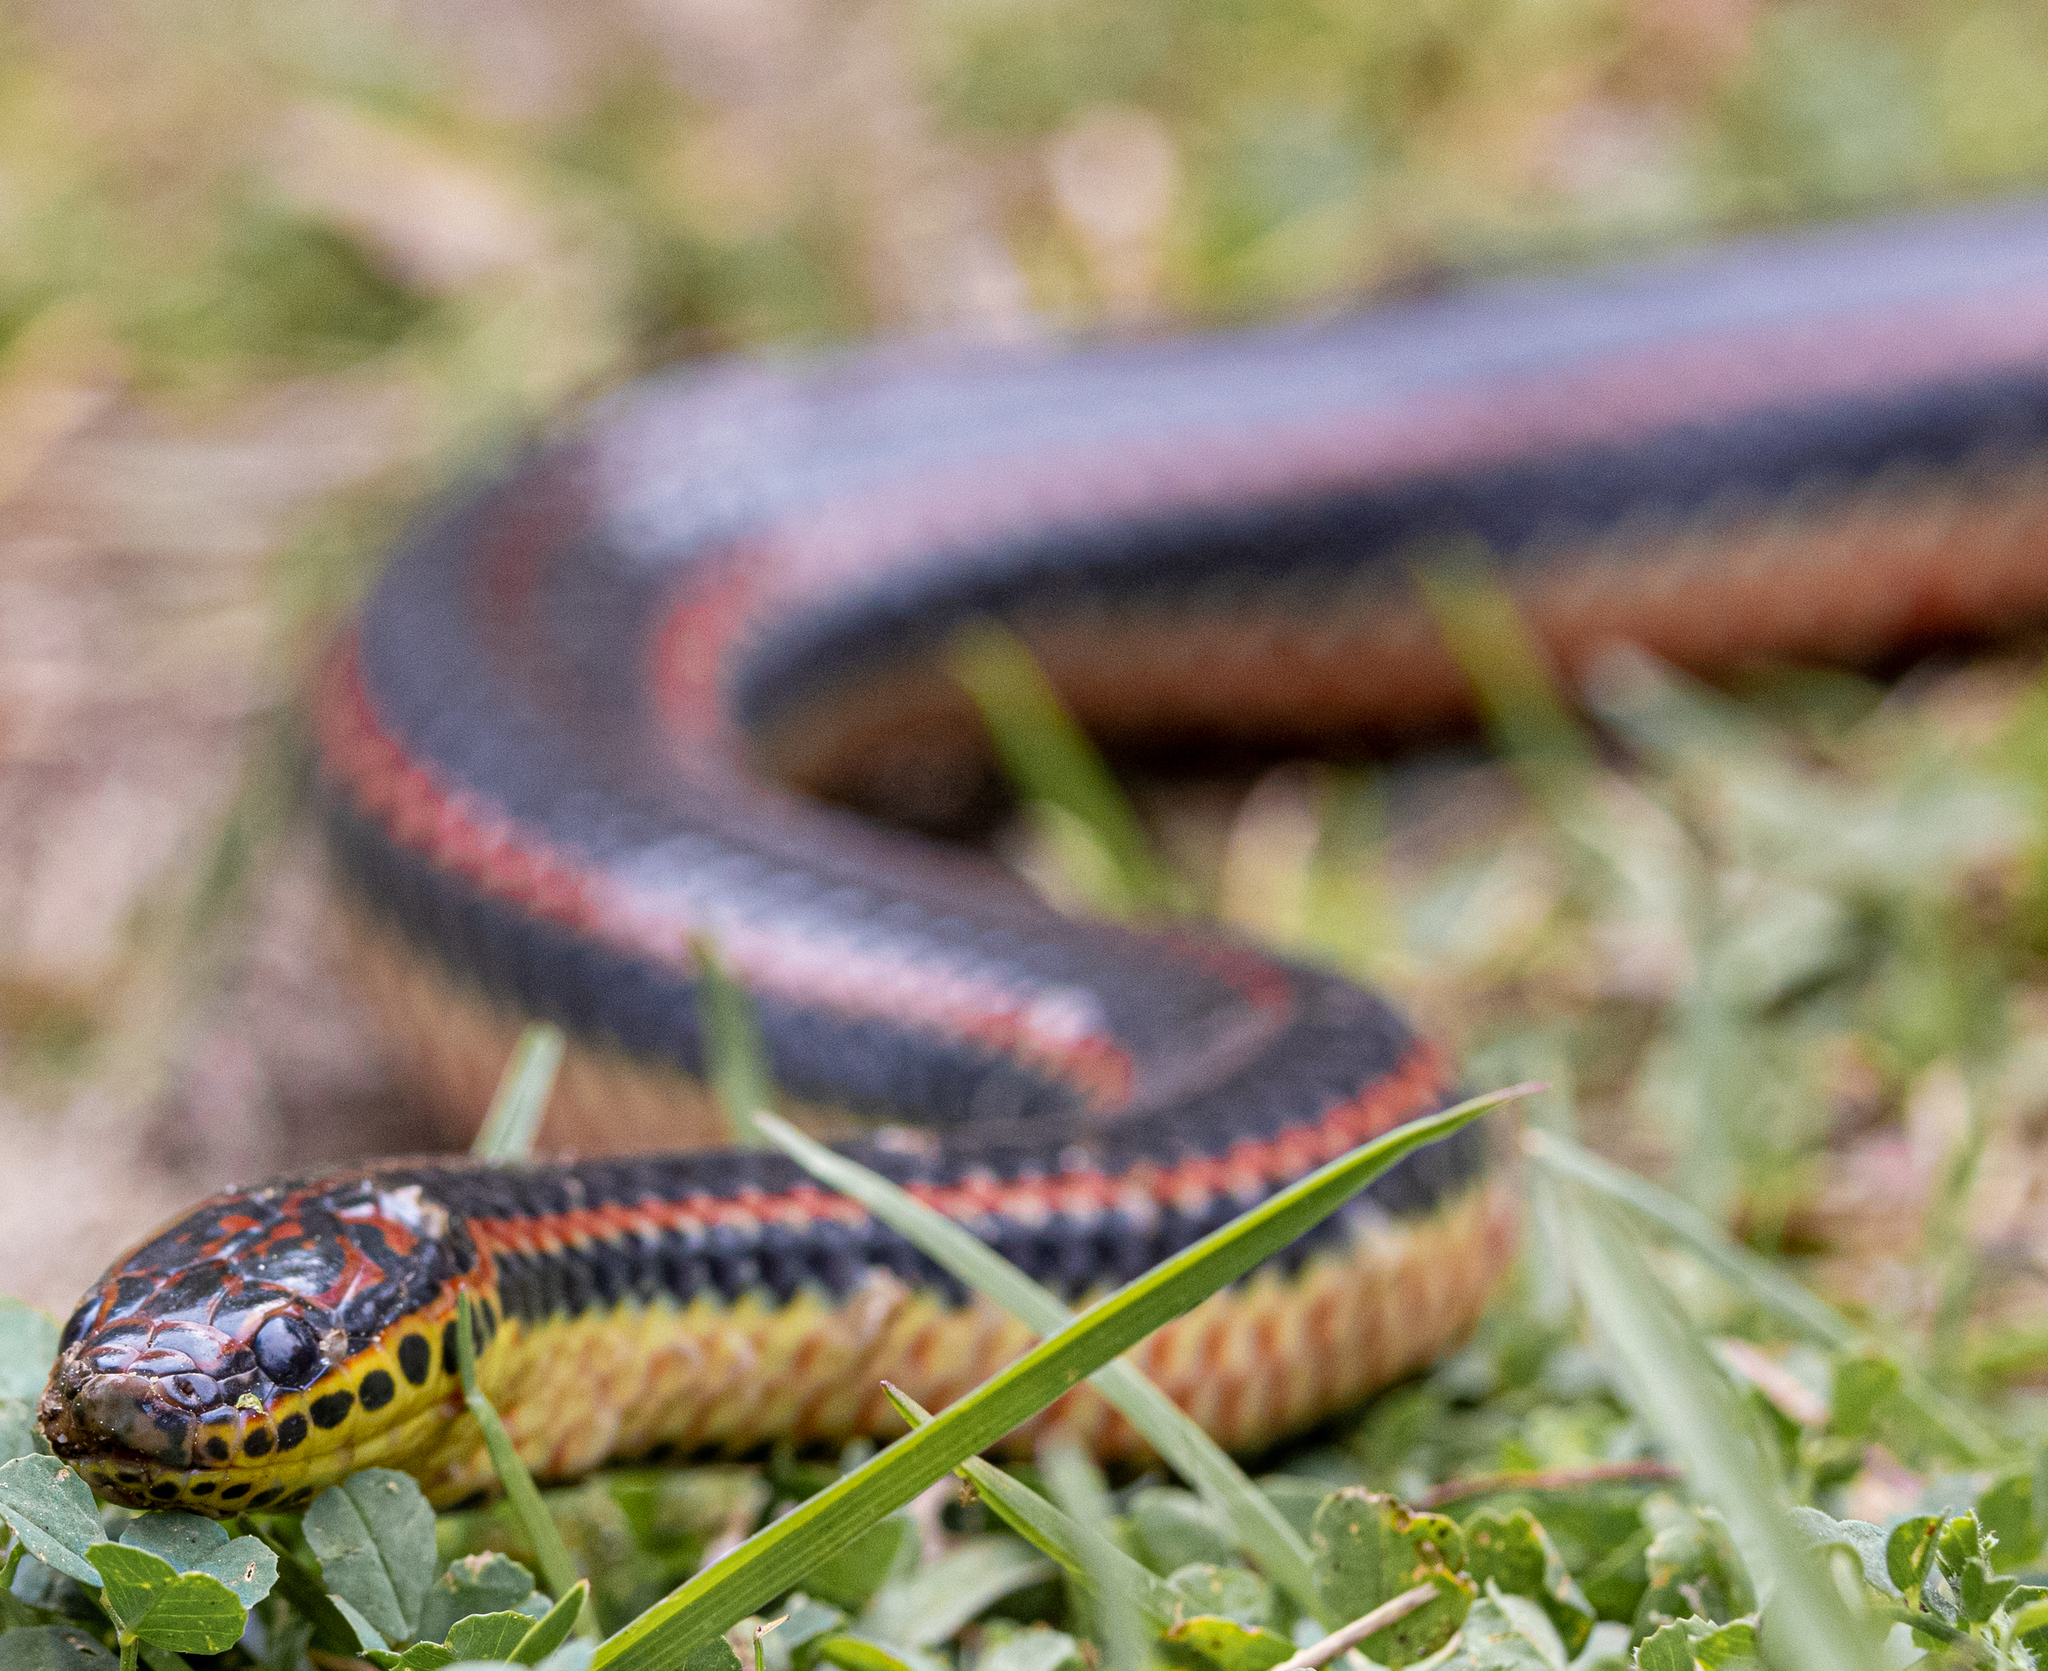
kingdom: Animalia
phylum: Chordata
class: Squamata
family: Colubridae
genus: Farancia
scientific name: Farancia erytrogramma
